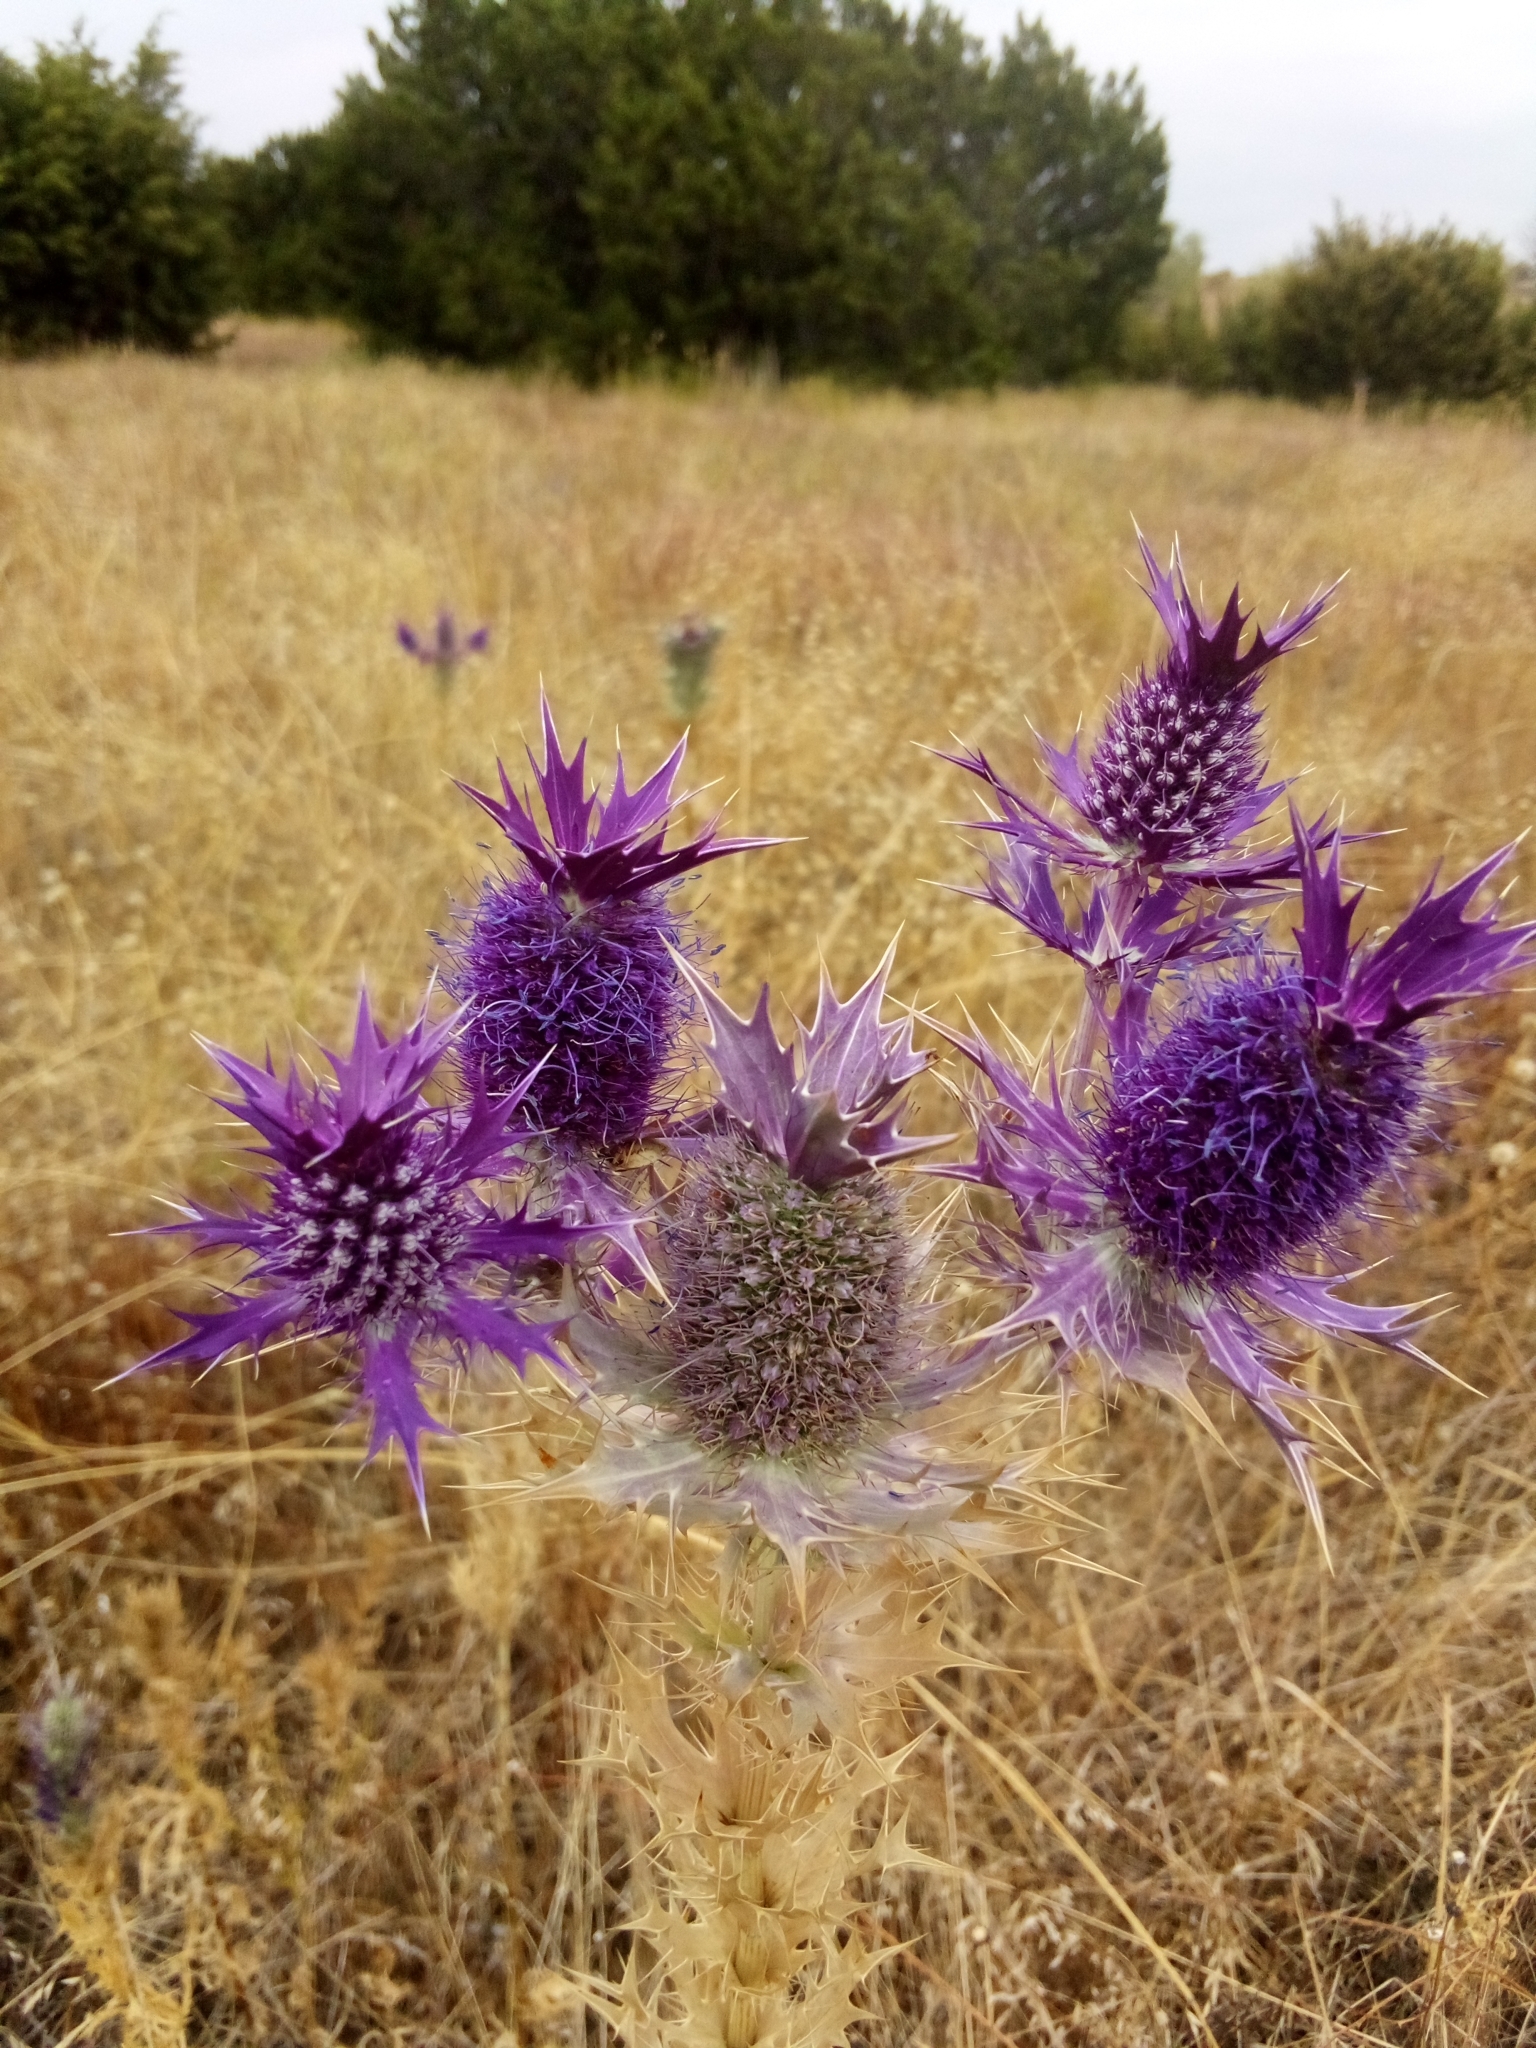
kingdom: Plantae
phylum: Tracheophyta
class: Magnoliopsida
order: Apiales
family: Apiaceae
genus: Eryngium
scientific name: Eryngium leavenworthii
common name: Leavenworth's eryngo
